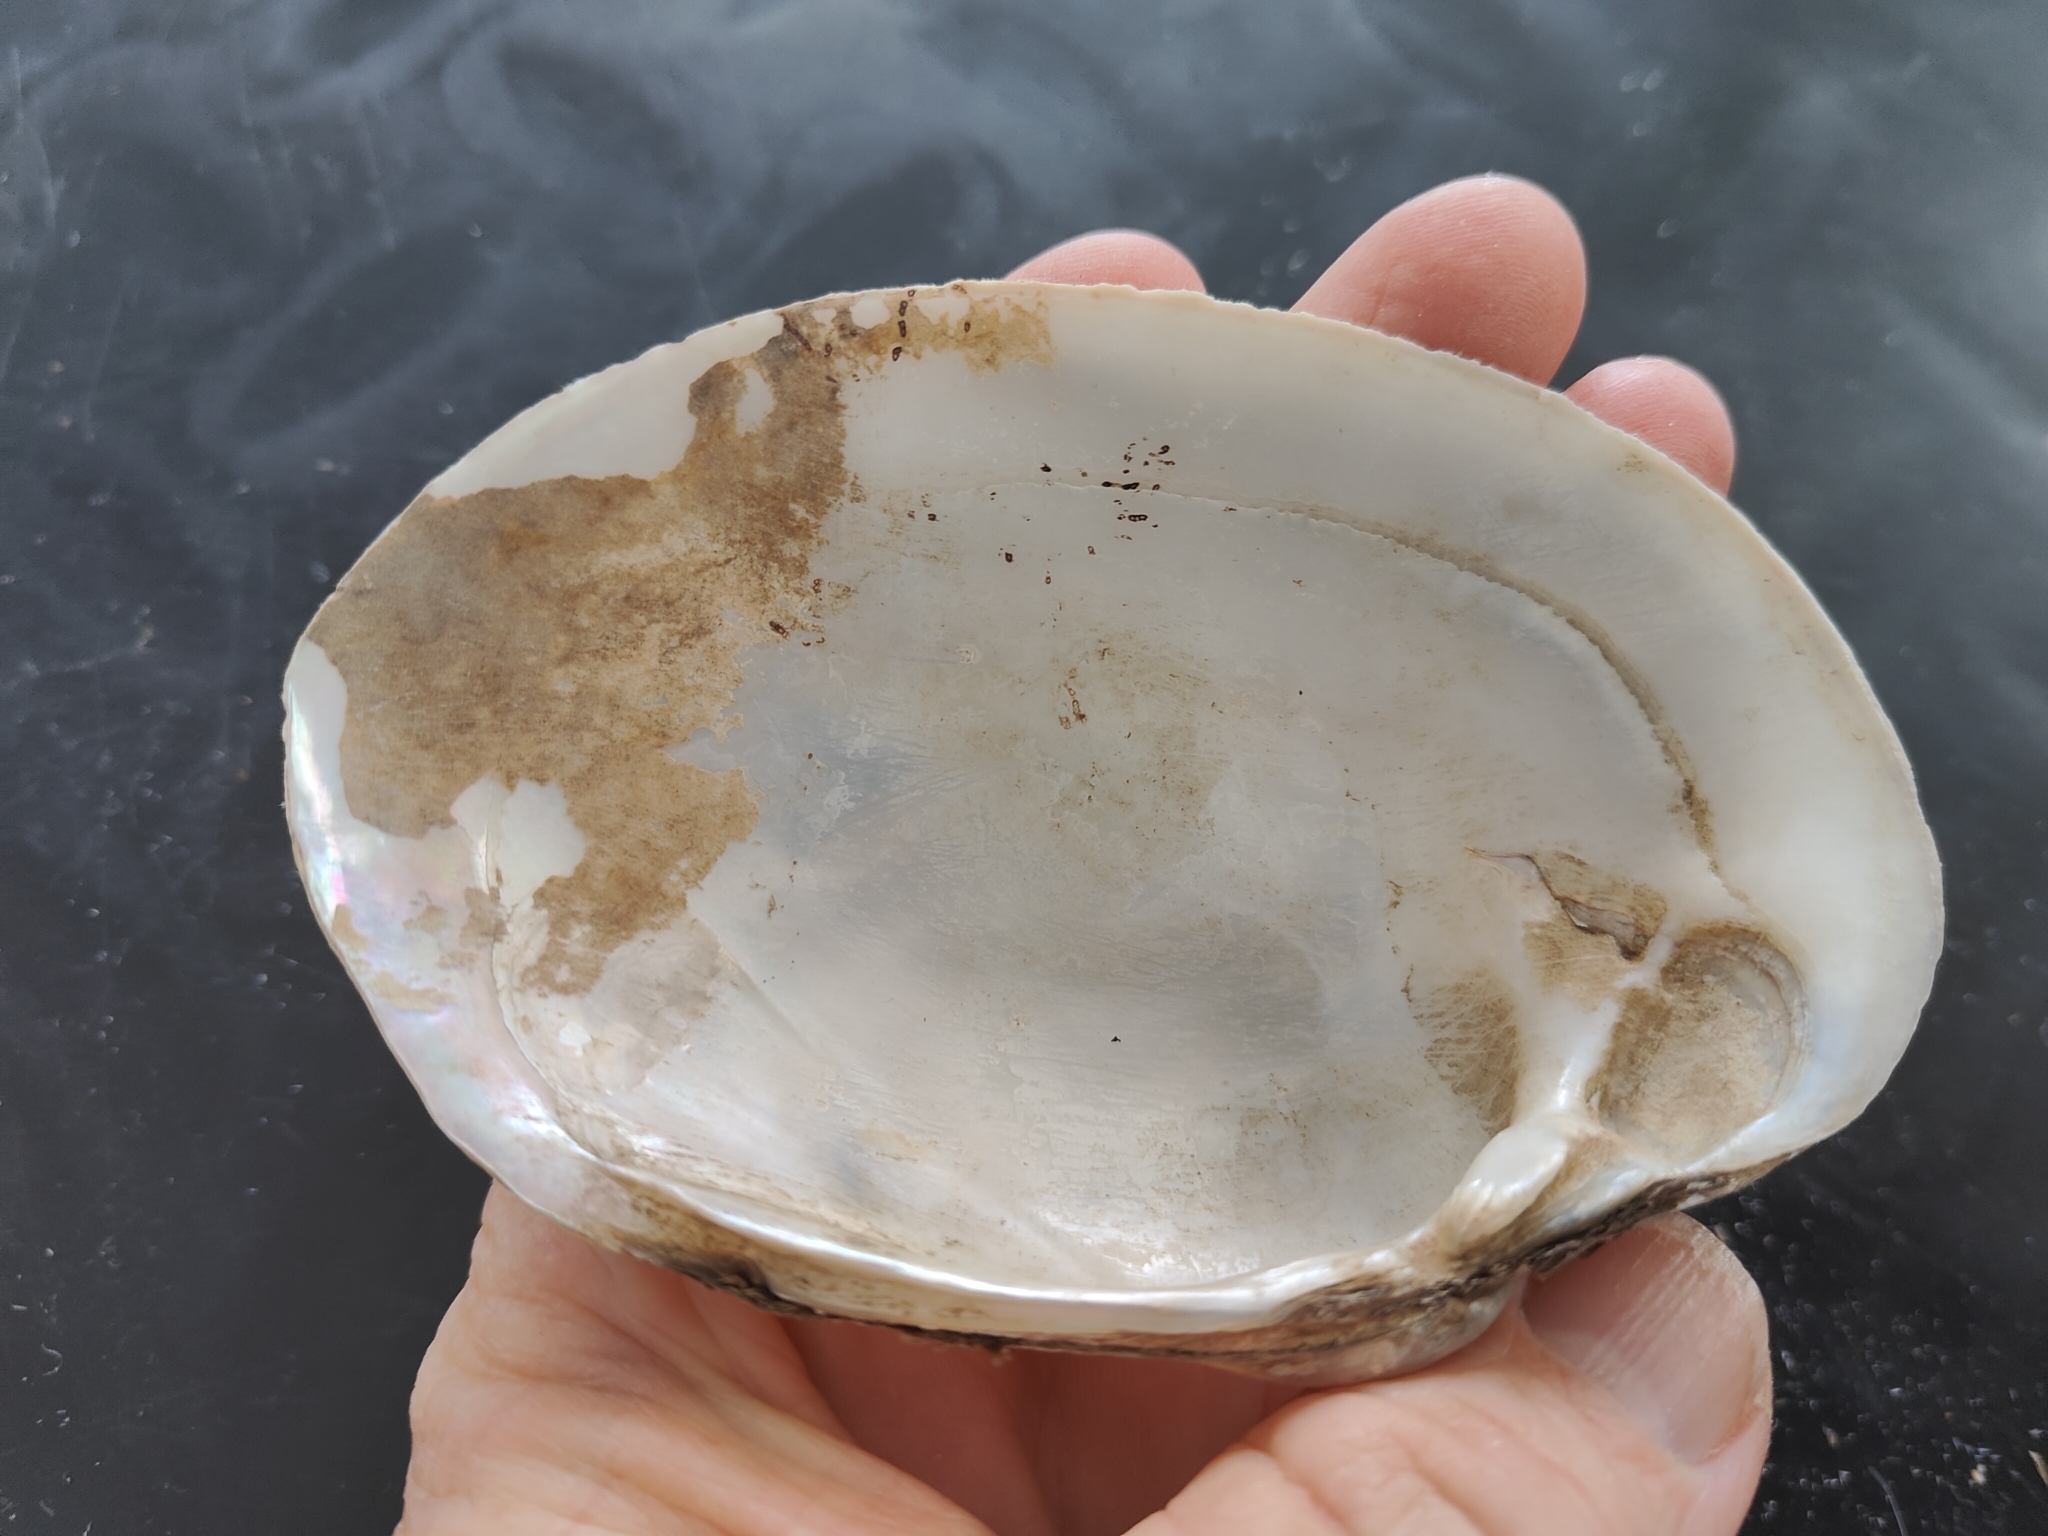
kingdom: Animalia
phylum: Mollusca
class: Bivalvia
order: Unionida
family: Unionidae
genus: Lampsilis
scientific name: Lampsilis cardium
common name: Plain pocketbook
